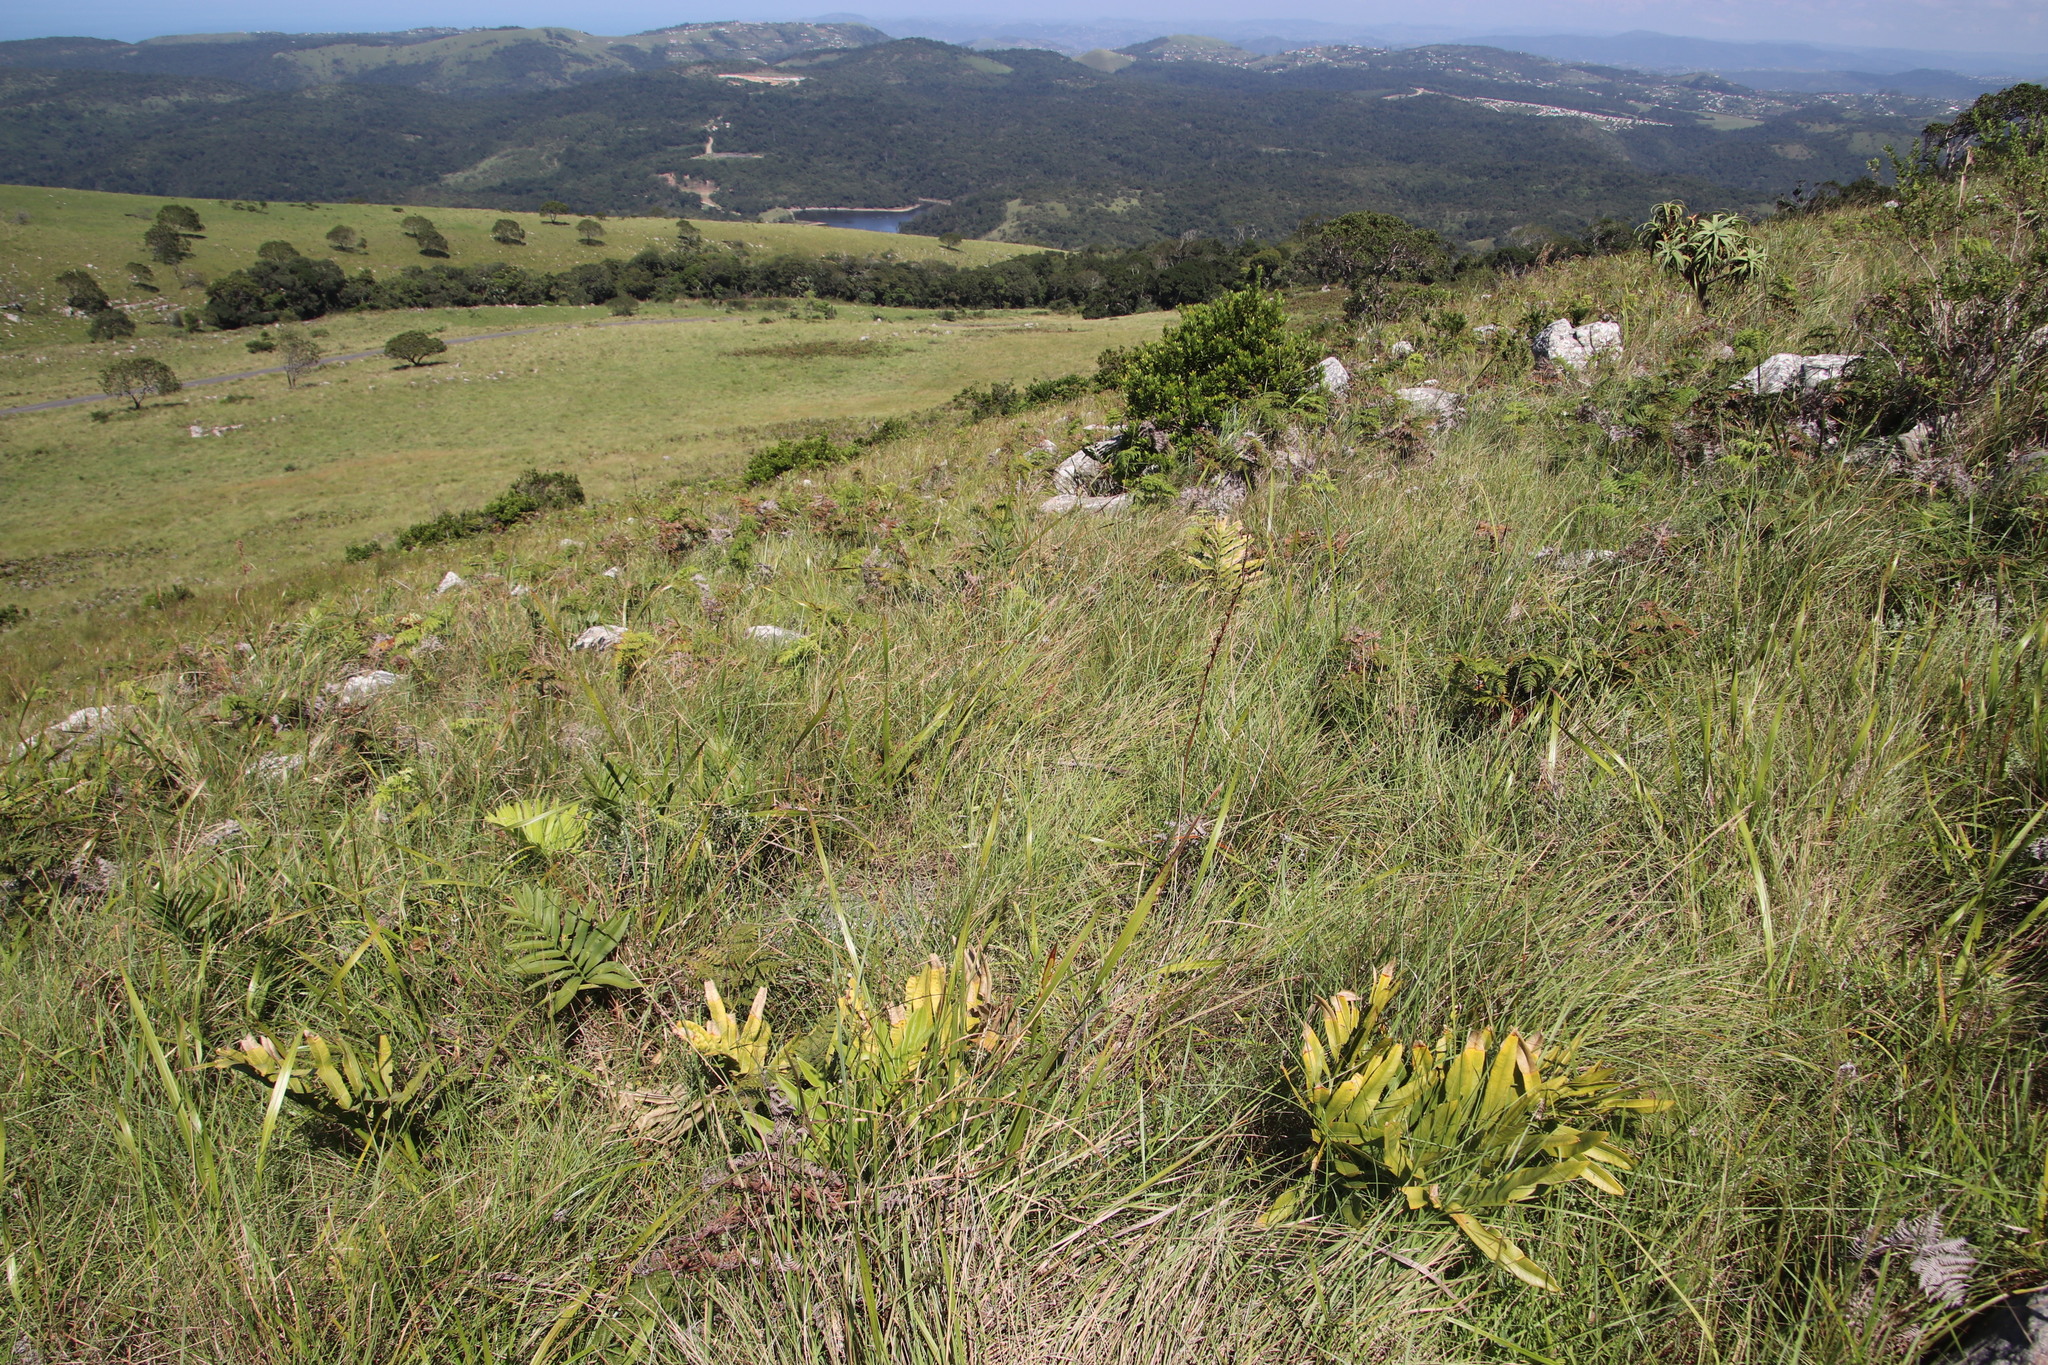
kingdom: Plantae
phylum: Tracheophyta
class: Cycadopsida
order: Cycadales
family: Zamiaceae
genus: Stangeria
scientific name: Stangeria eriopus
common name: Natal grass cycad
